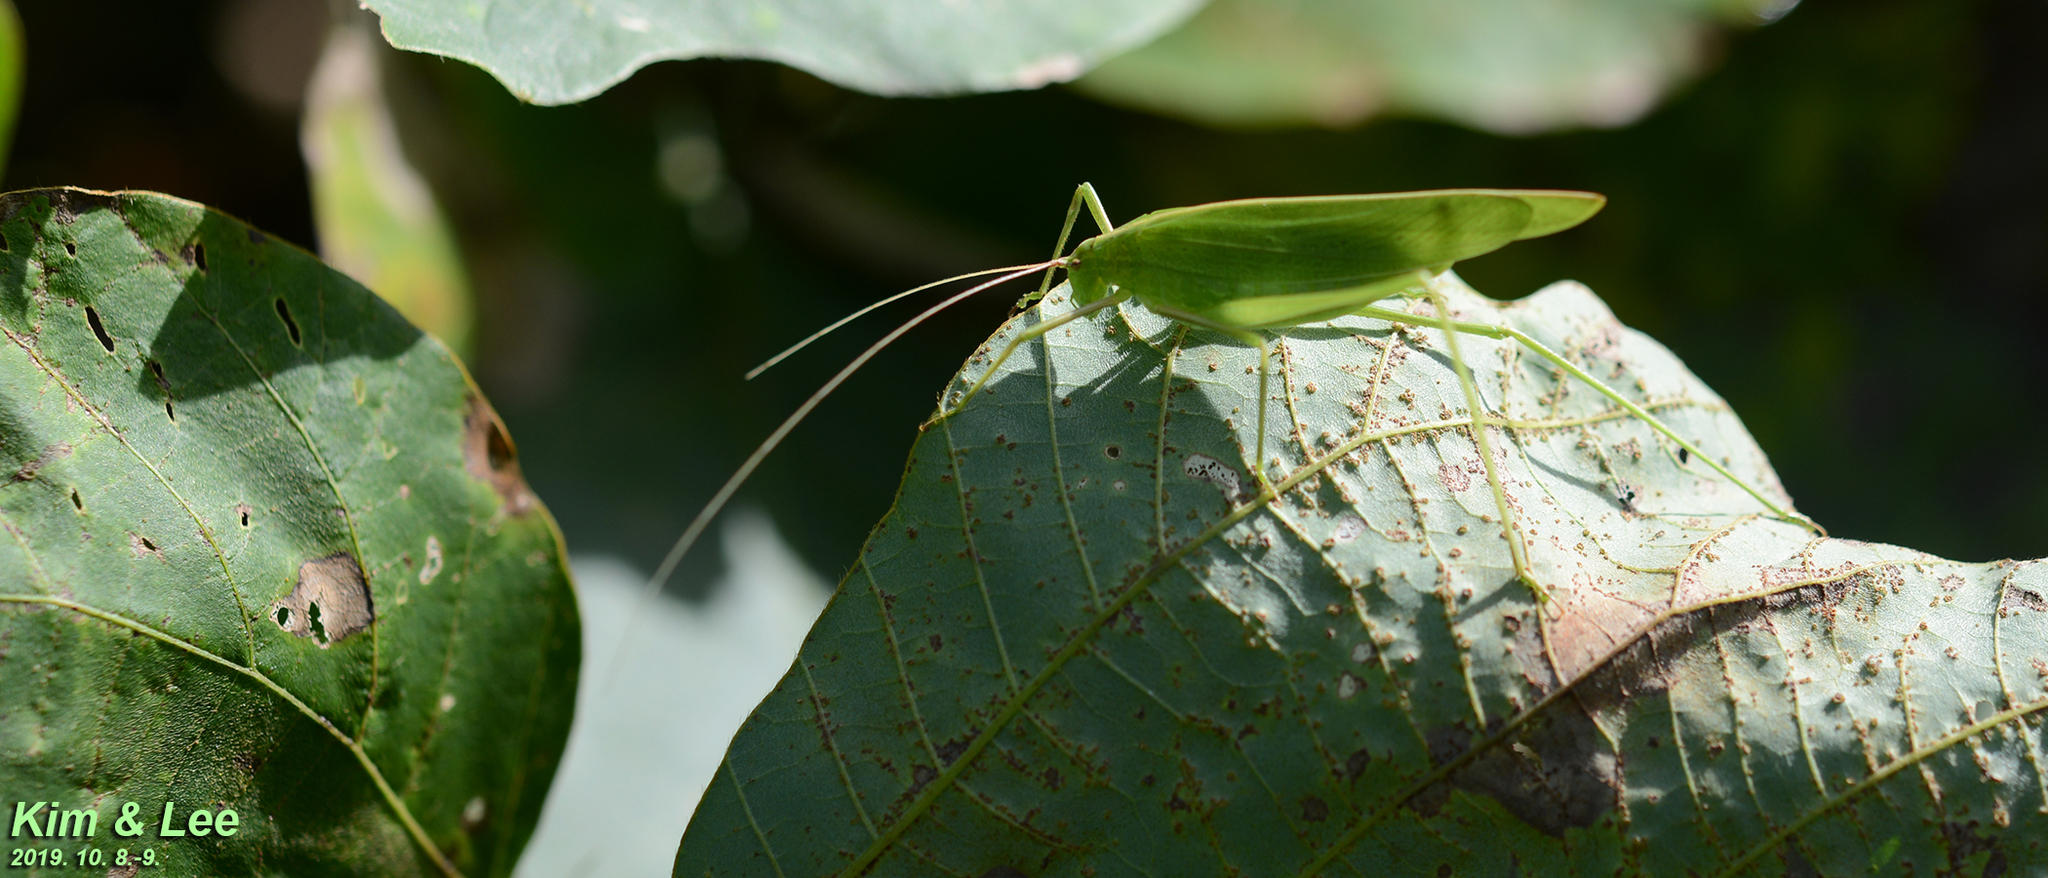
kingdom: Animalia
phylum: Arthropoda
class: Insecta
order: Orthoptera
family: Tettigoniidae
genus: Ducetia
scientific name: Ducetia japonica
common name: Pacific ducetia
